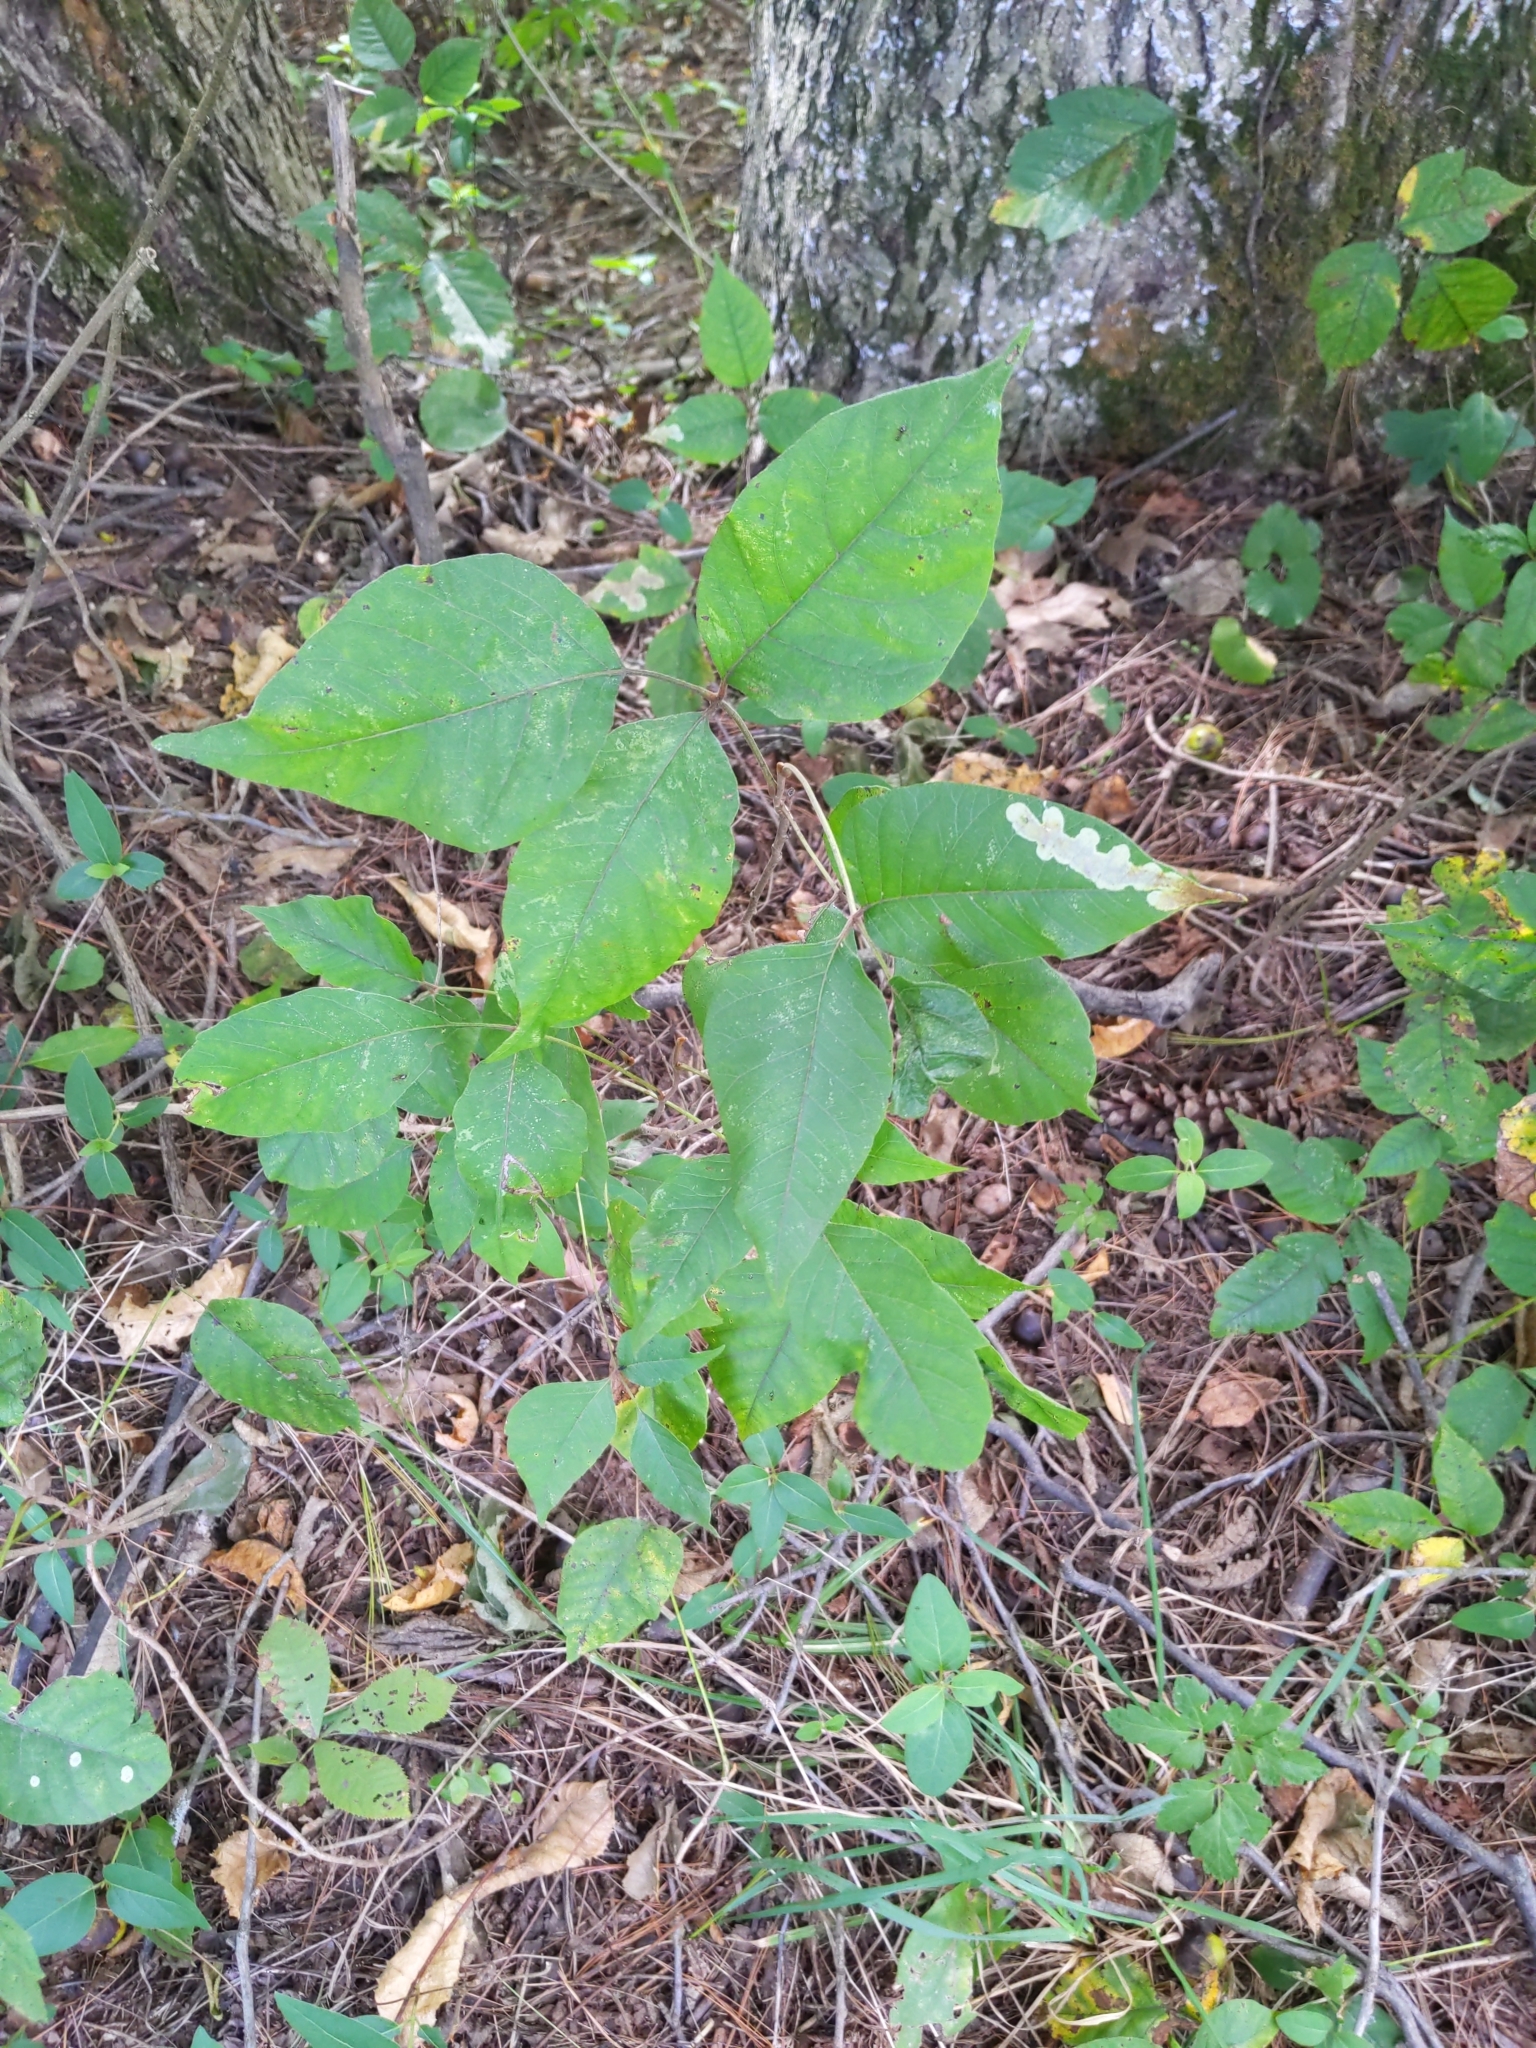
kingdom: Plantae
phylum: Tracheophyta
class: Magnoliopsida
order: Sapindales
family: Anacardiaceae
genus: Toxicodendron
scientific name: Toxicodendron radicans
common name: Poison ivy
